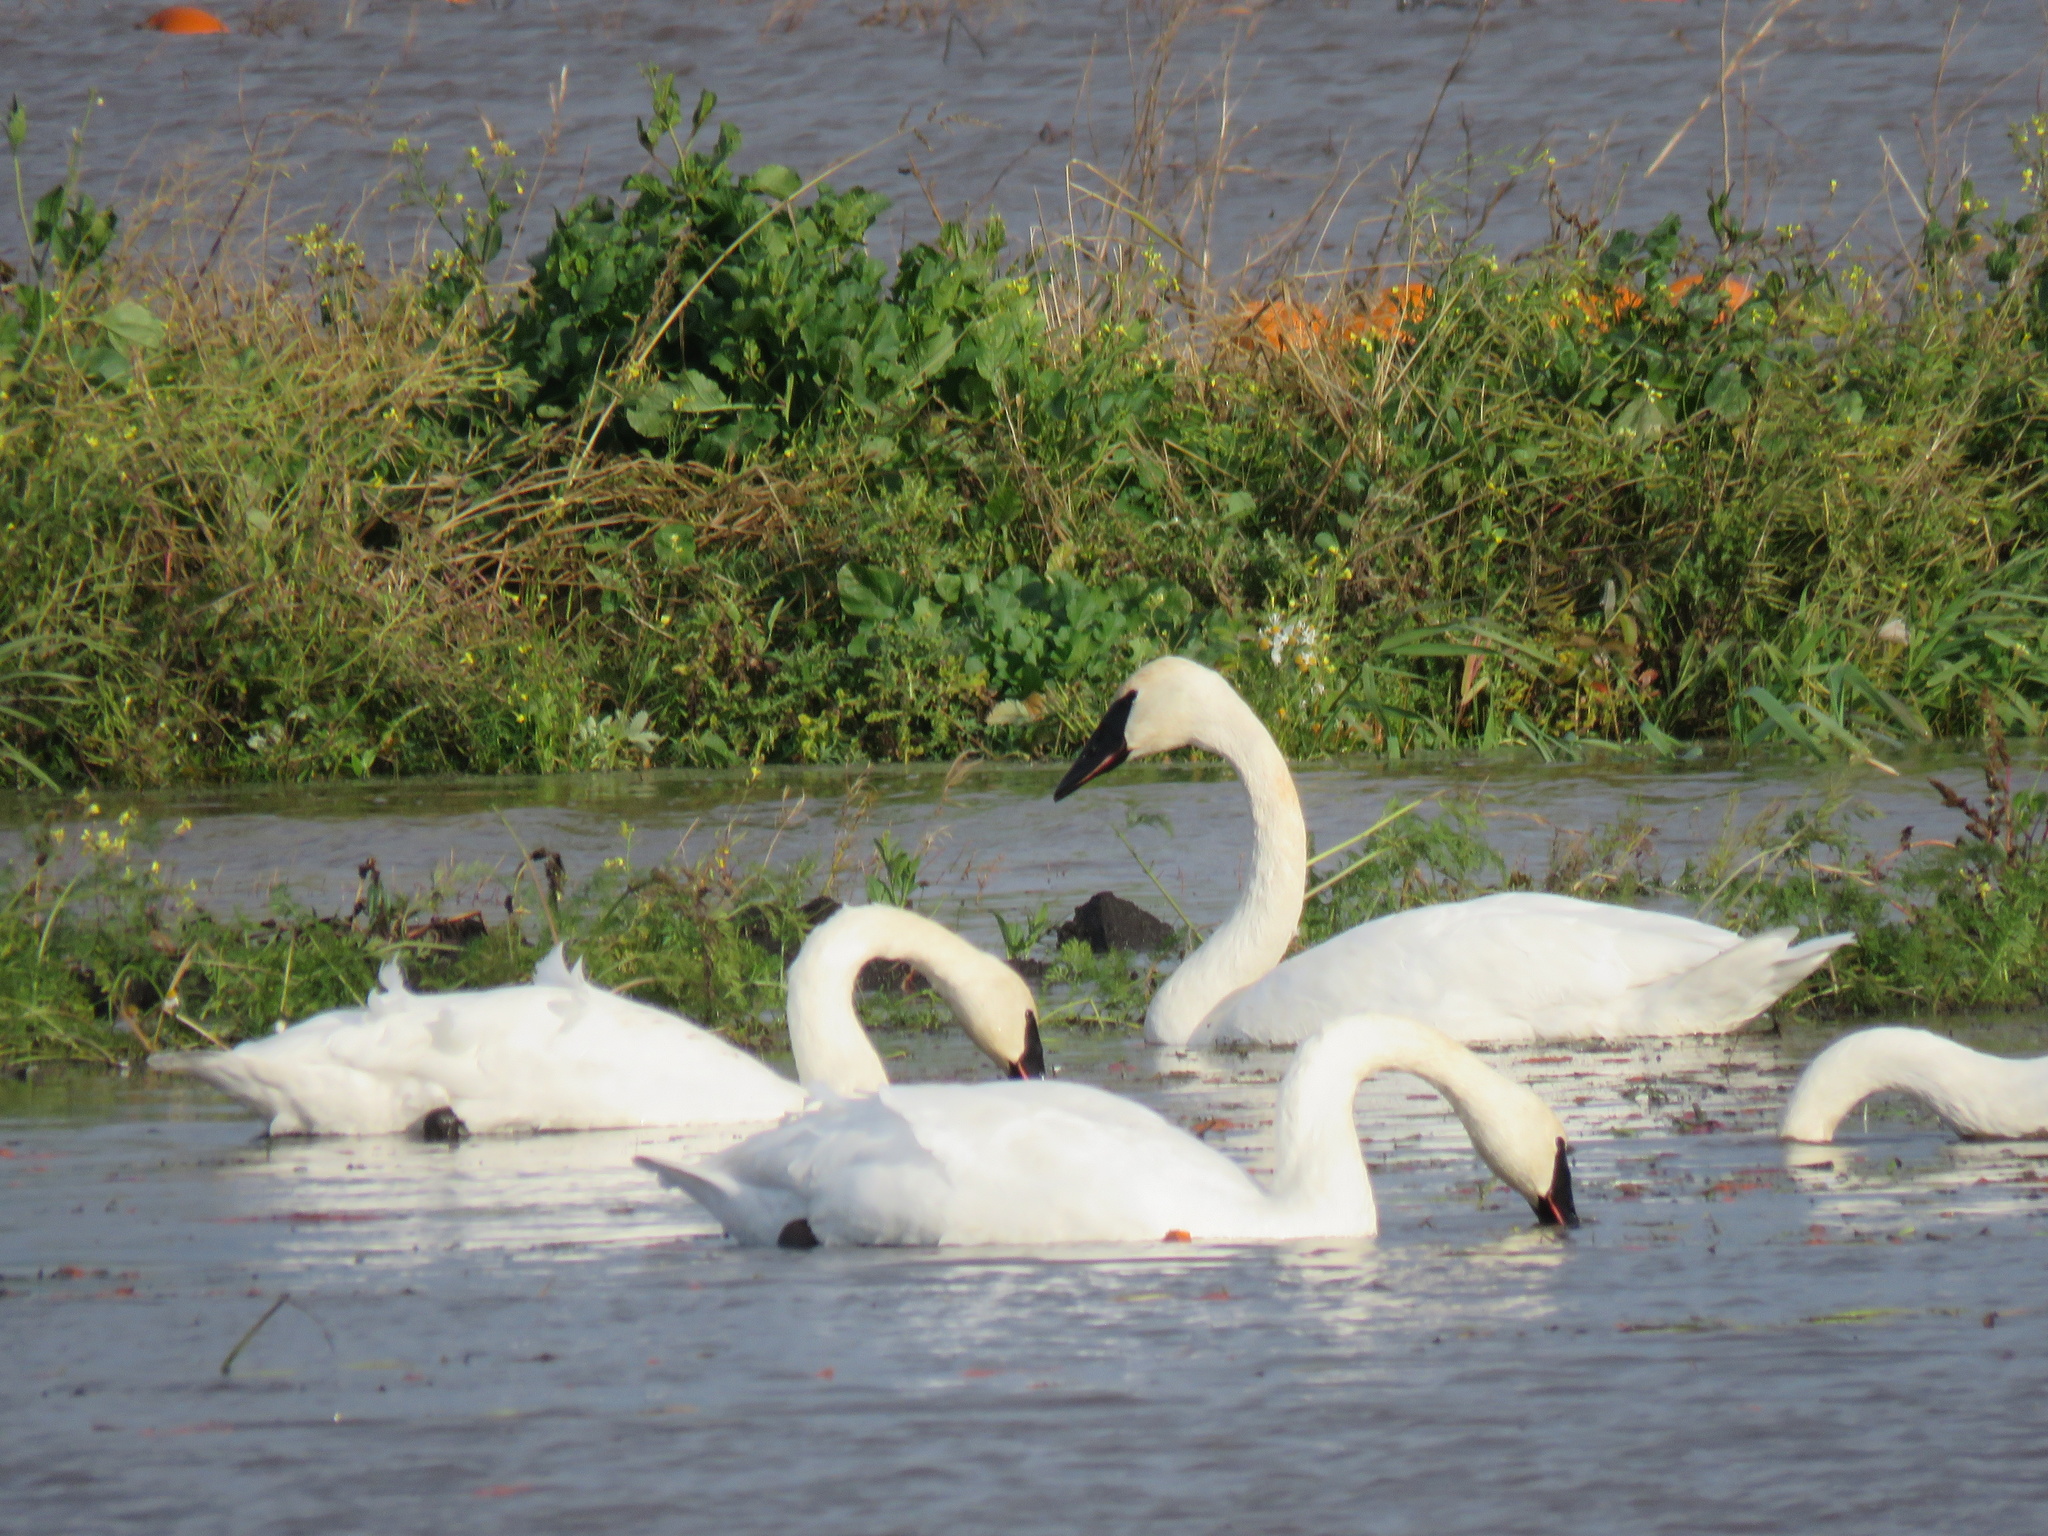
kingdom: Animalia
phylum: Chordata
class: Aves
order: Anseriformes
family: Anatidae
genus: Cygnus
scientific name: Cygnus buccinator
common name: Trumpeter swan
